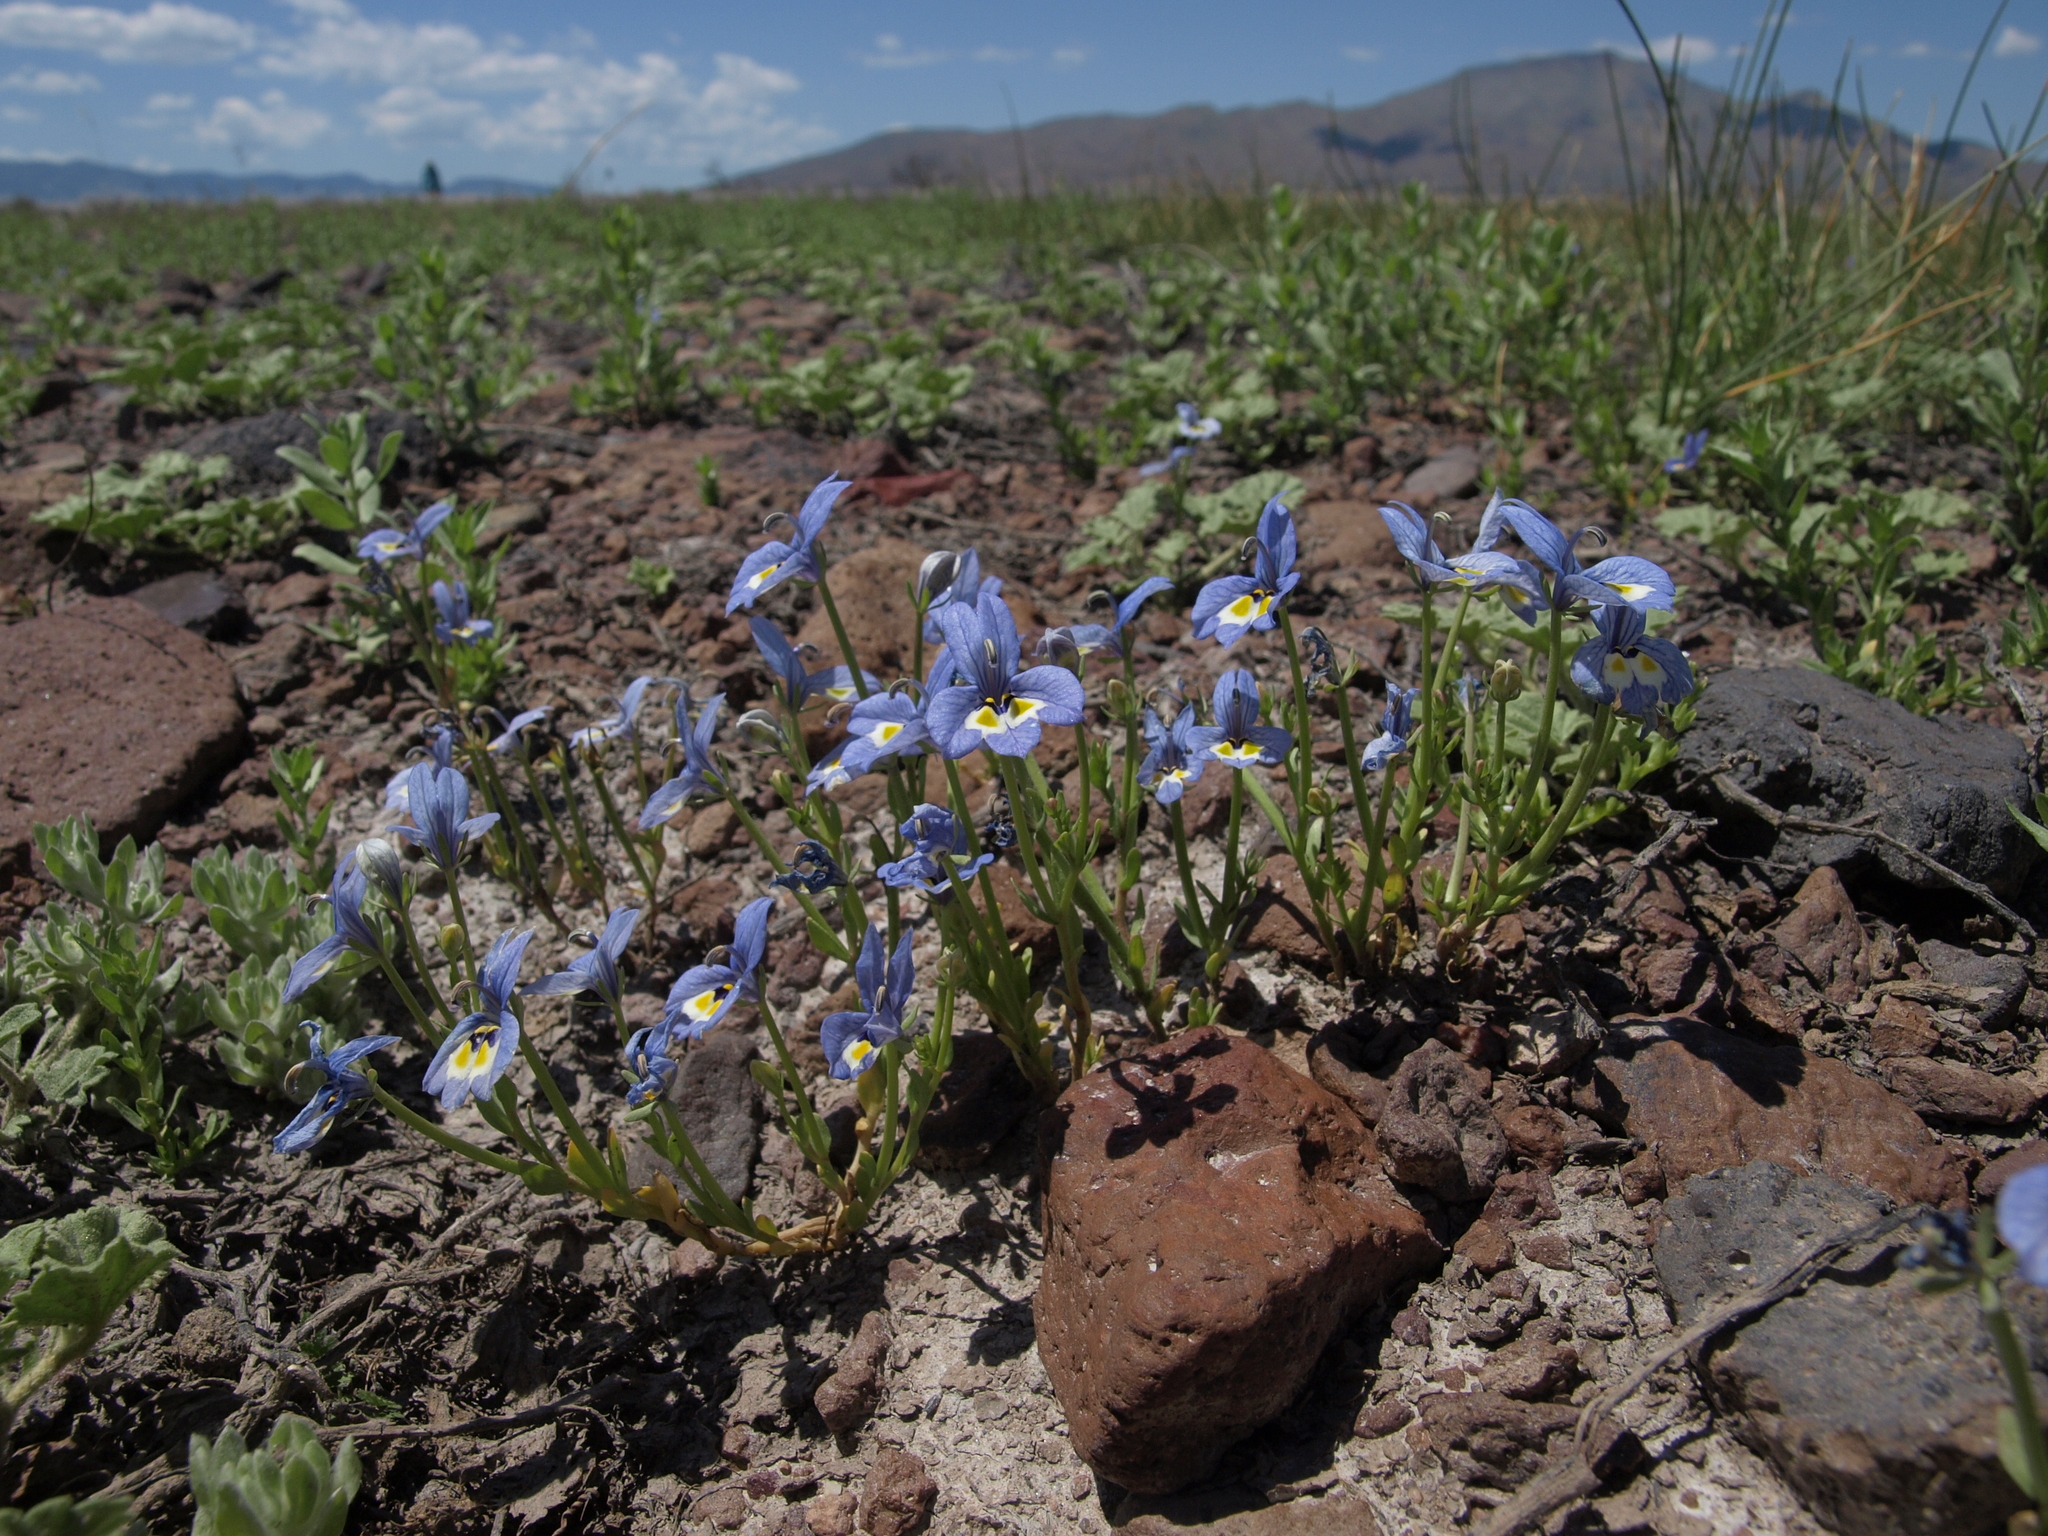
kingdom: Plantae
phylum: Tracheophyta
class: Magnoliopsida
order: Asterales
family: Campanulaceae
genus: Downingia
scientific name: Downingia insignis
